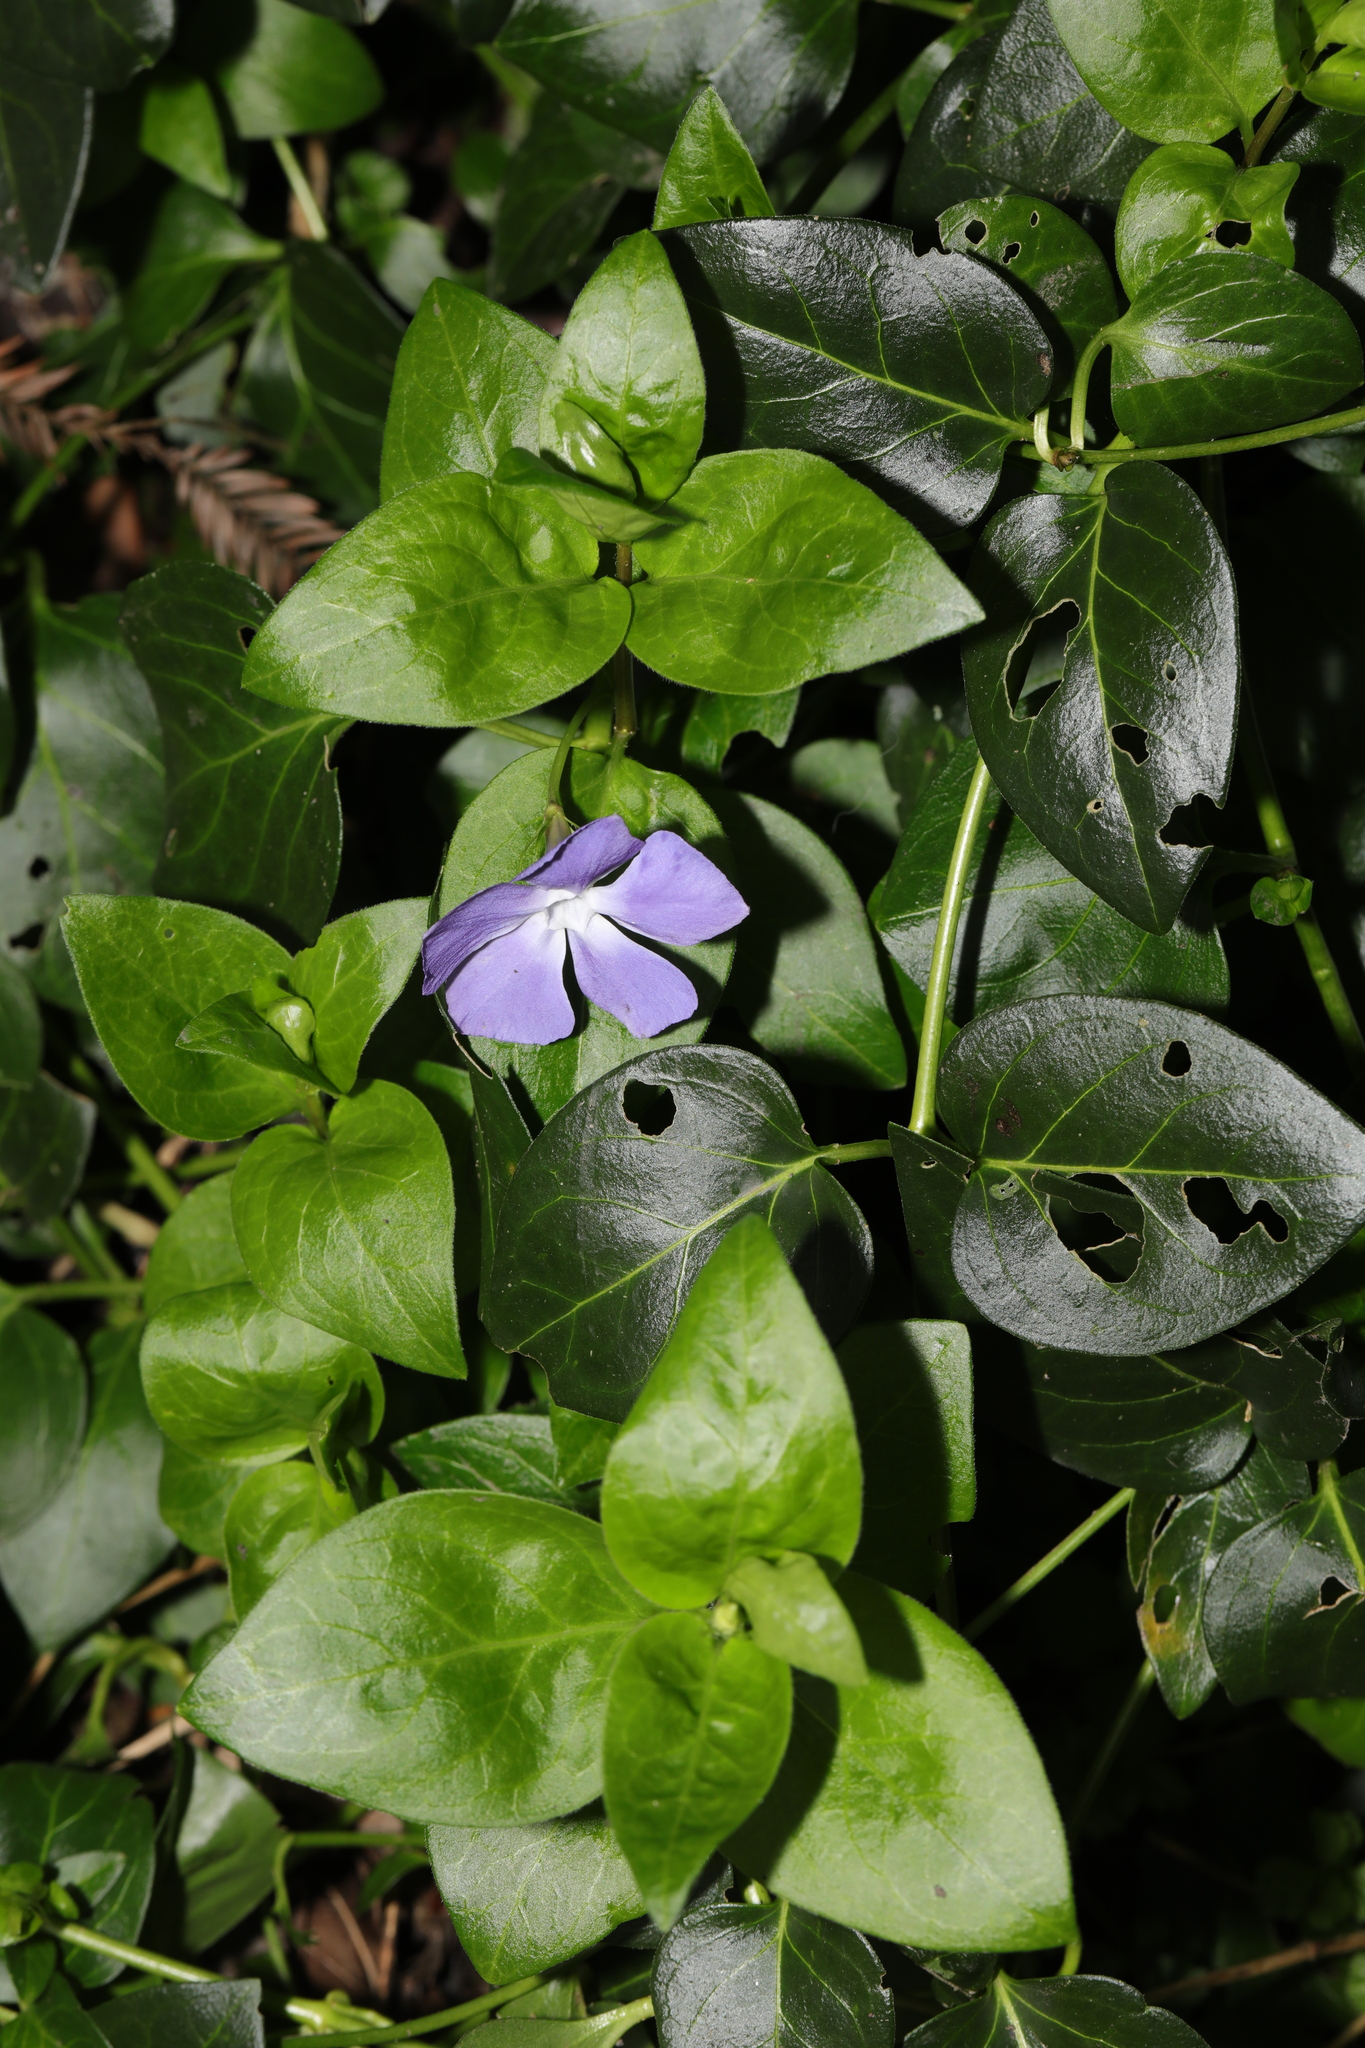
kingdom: Plantae
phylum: Tracheophyta
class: Magnoliopsida
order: Gentianales
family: Apocynaceae
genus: Vinca
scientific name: Vinca major
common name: Greater periwinkle
